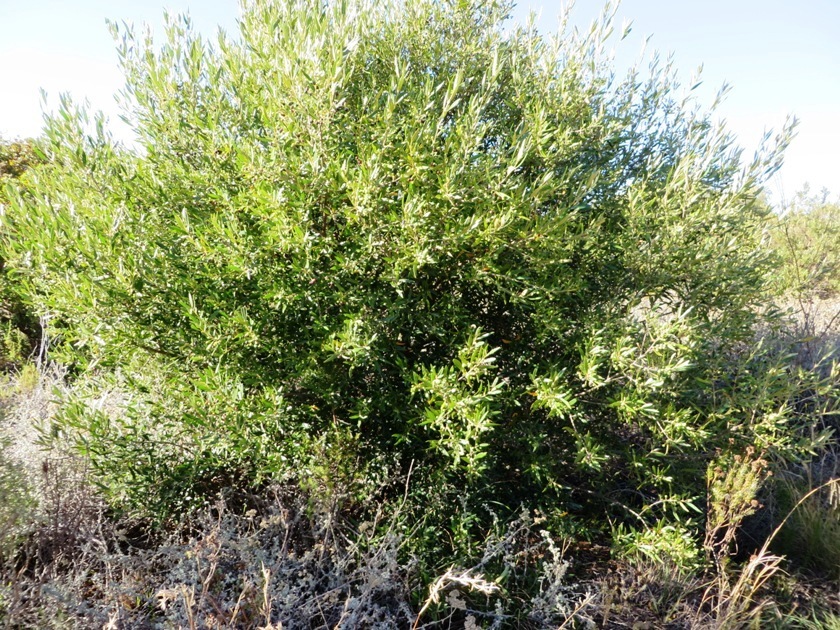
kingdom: Plantae
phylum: Tracheophyta
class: Magnoliopsida
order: Lamiales
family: Oleaceae
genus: Olea
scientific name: Olea europaea
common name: Olive
